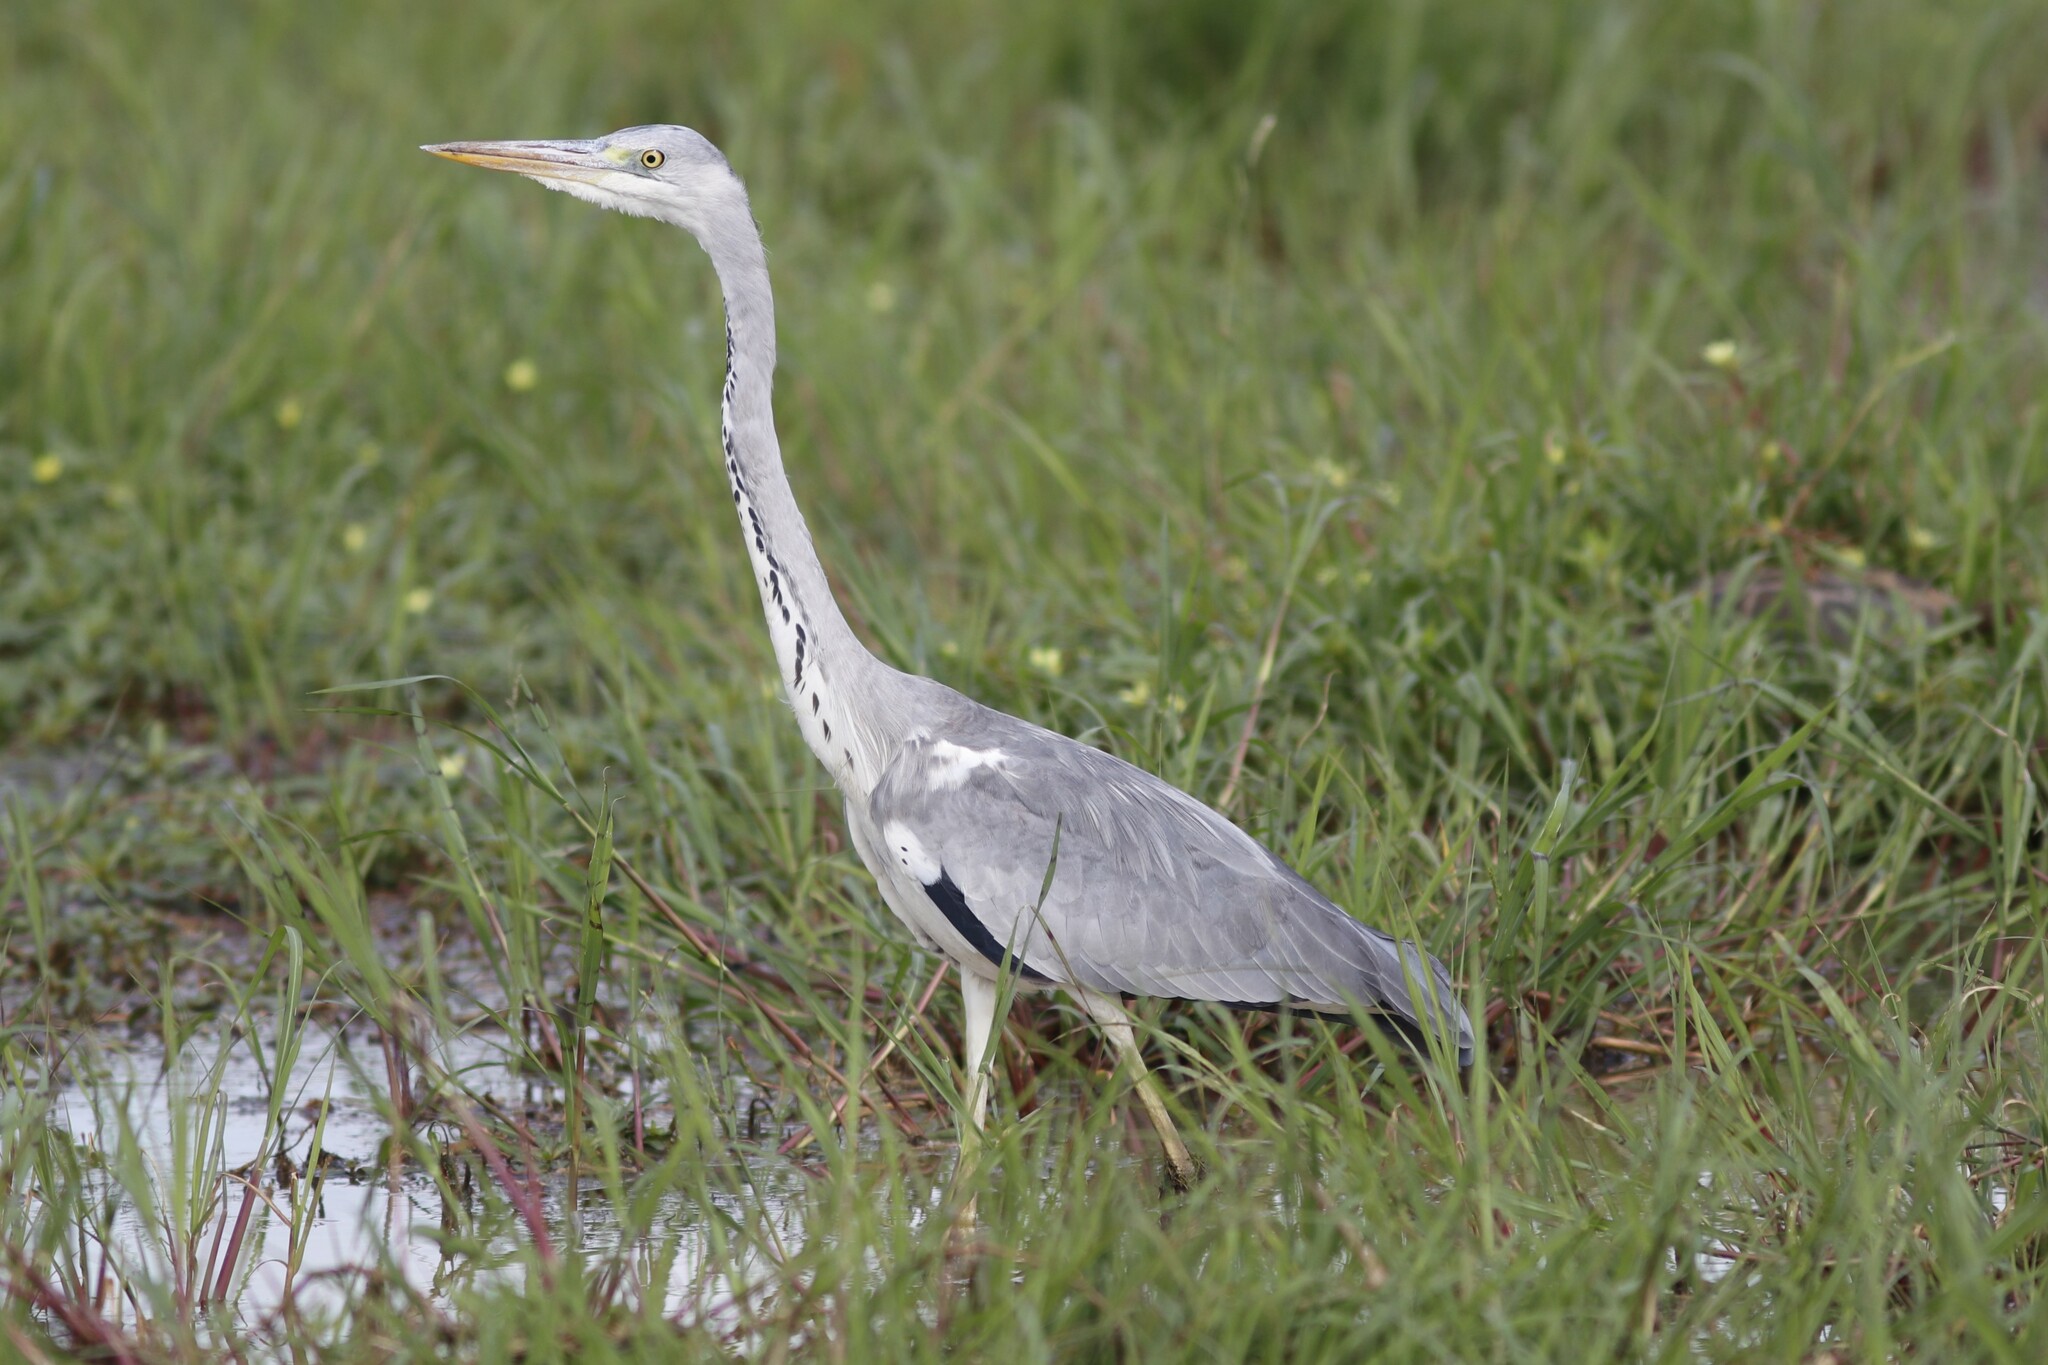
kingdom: Animalia
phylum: Chordata
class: Aves
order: Pelecaniformes
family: Ardeidae
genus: Ardea
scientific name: Ardea cinerea
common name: Grey heron
